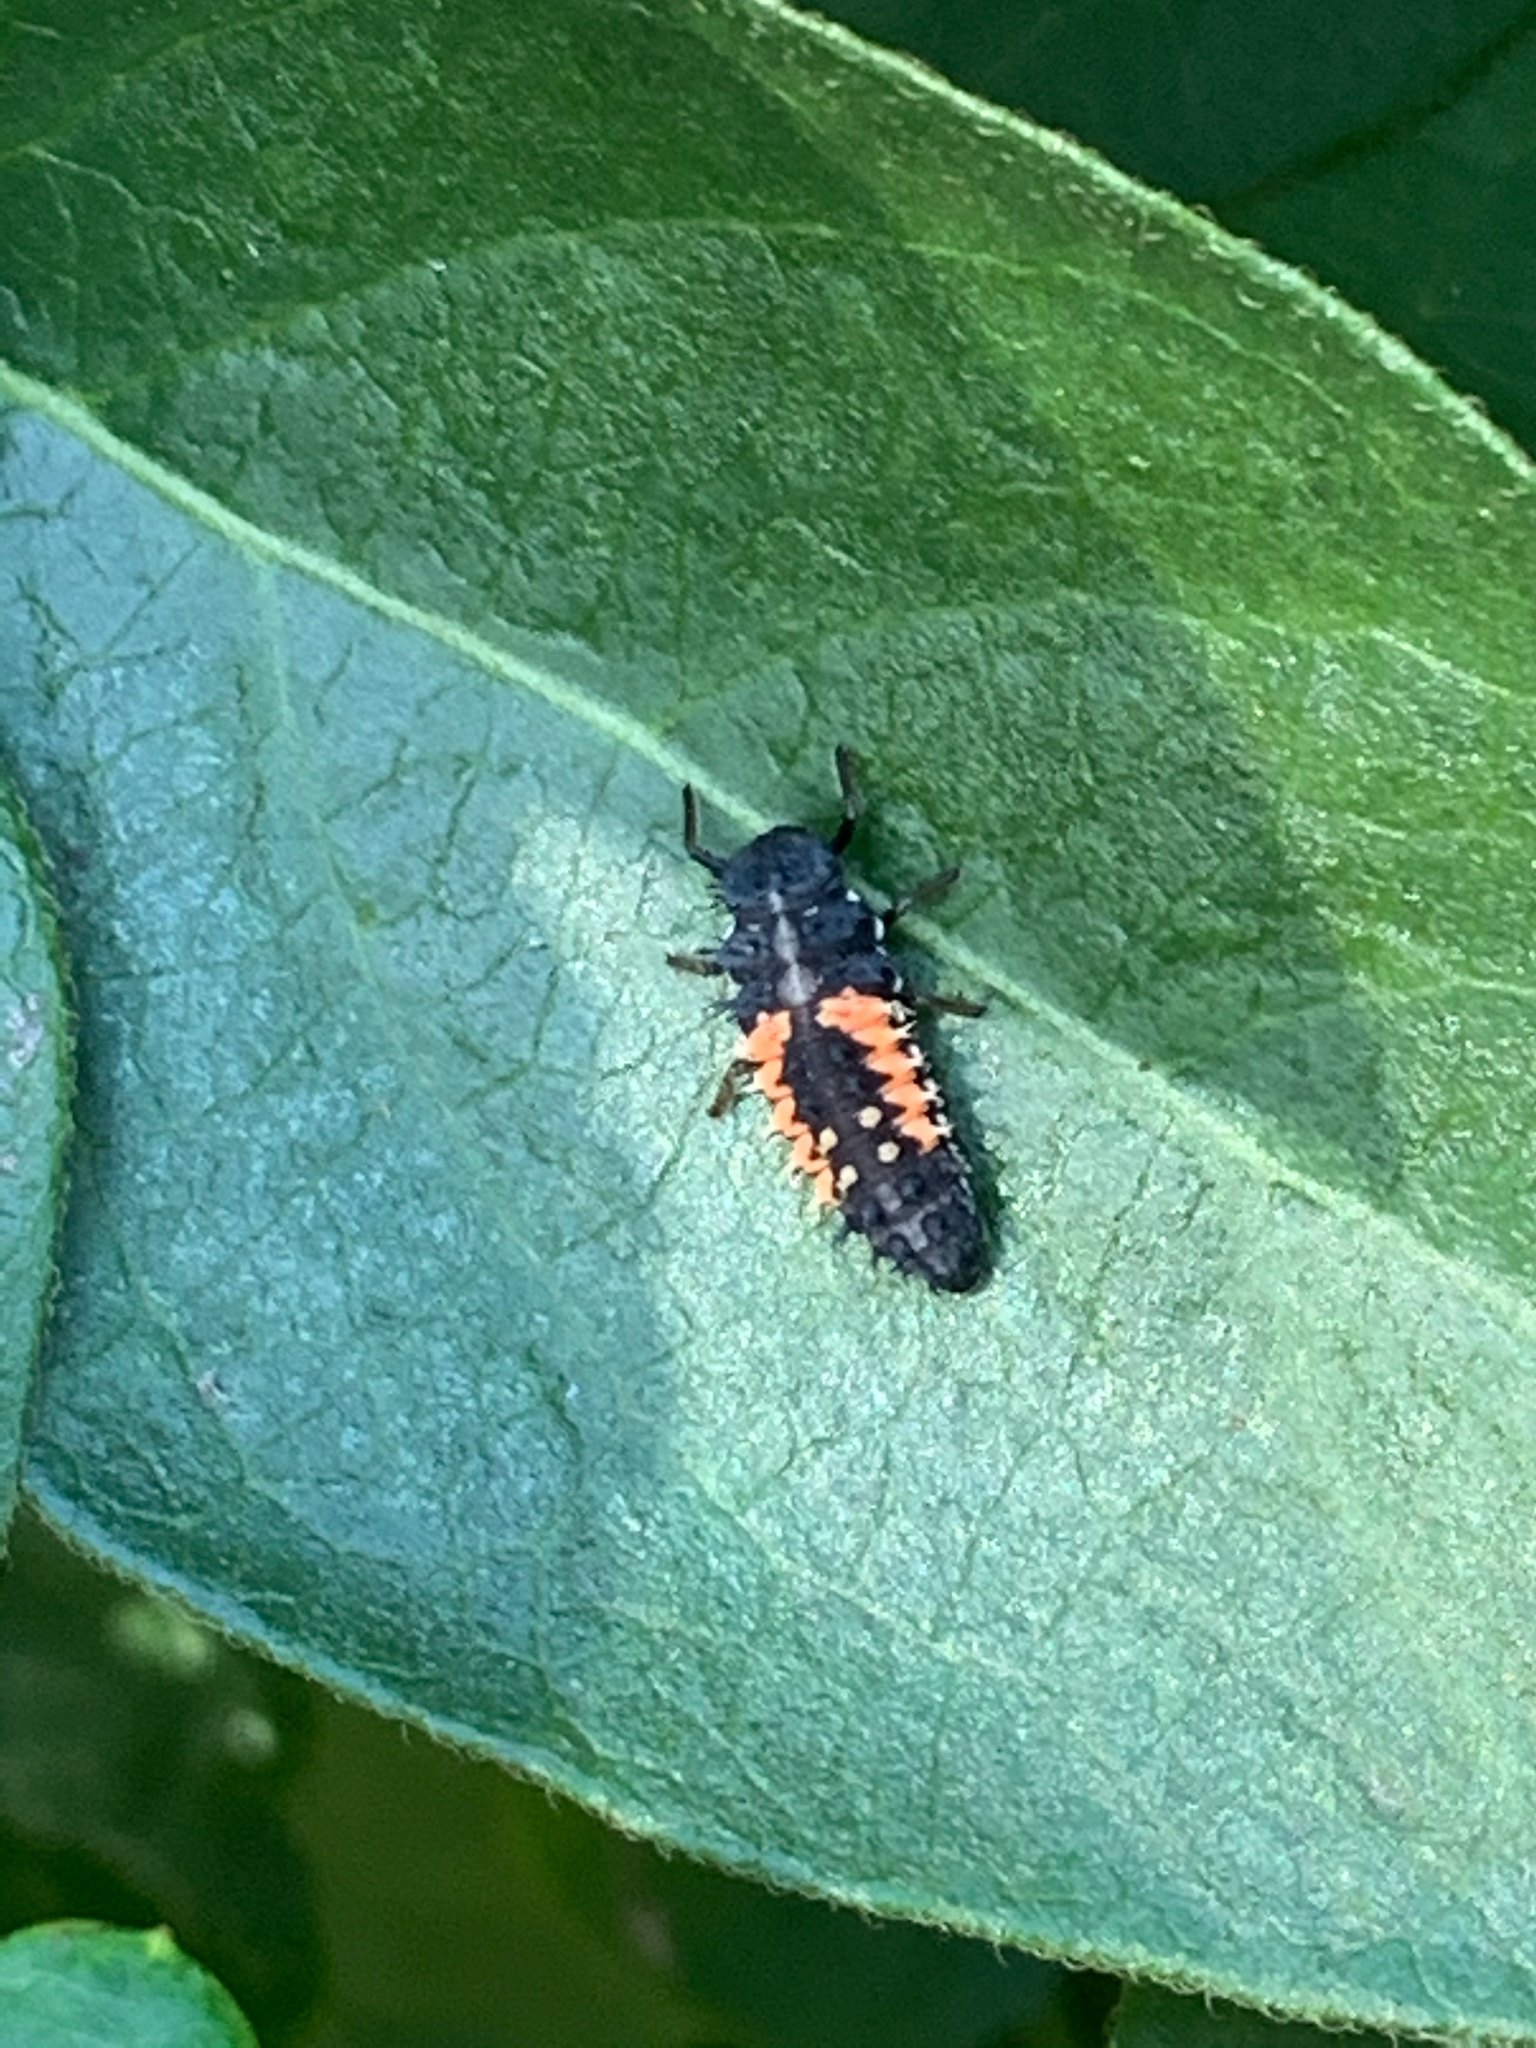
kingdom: Animalia
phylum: Arthropoda
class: Insecta
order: Coleoptera
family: Coccinellidae
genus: Harmonia
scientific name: Harmonia axyridis
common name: Harlequin ladybird
